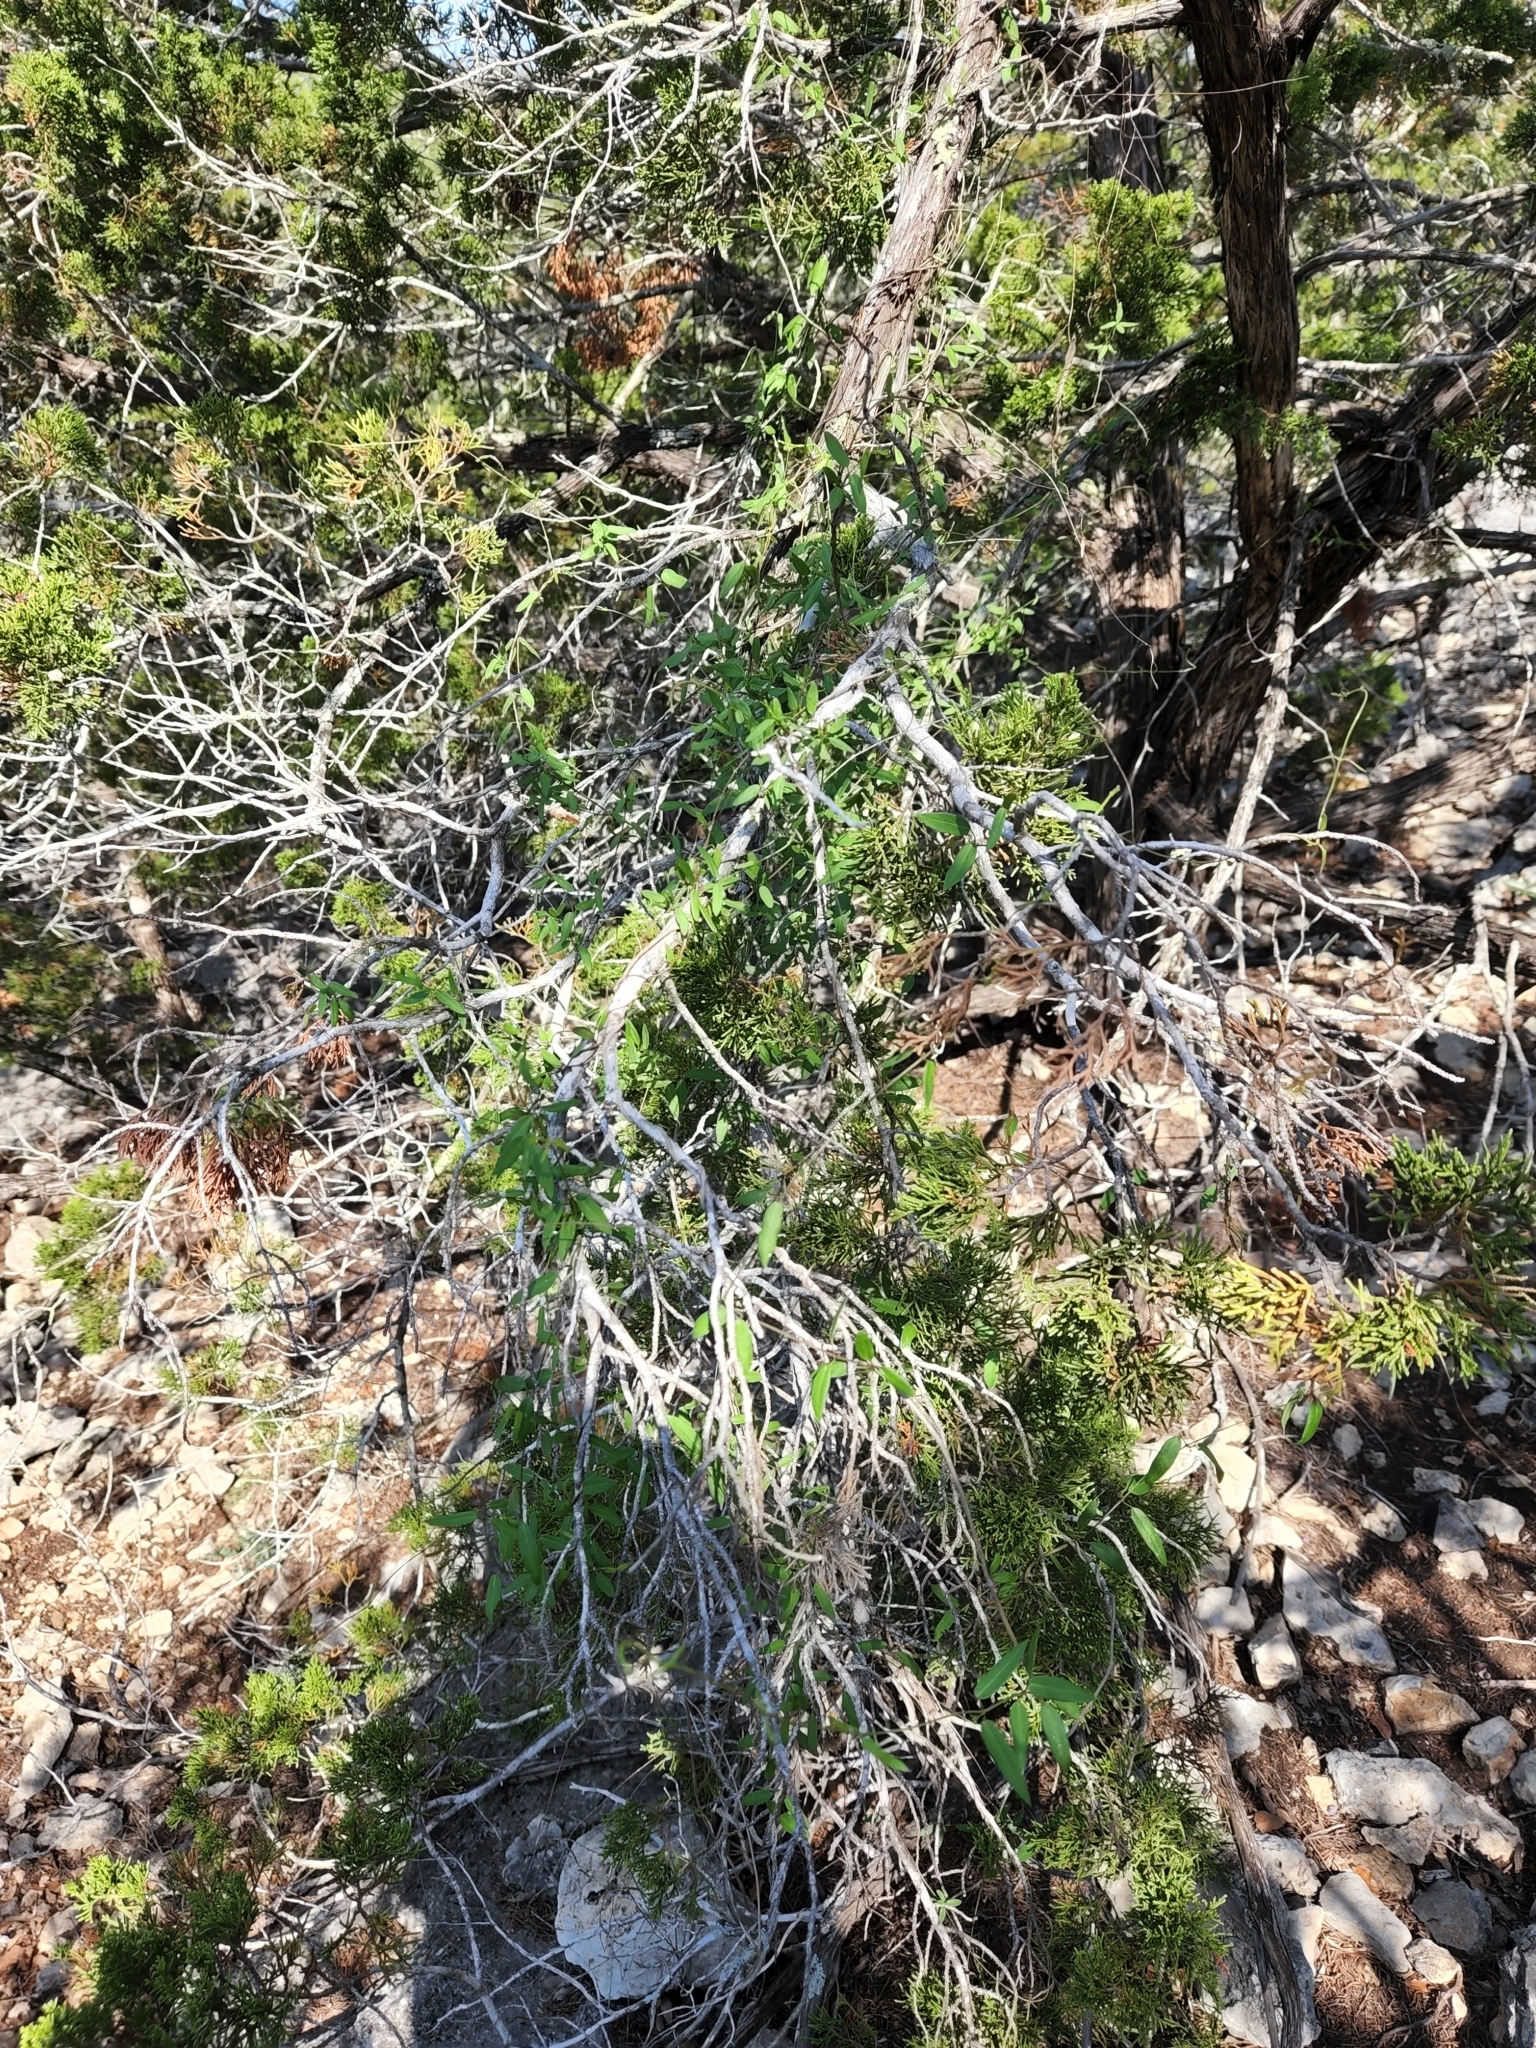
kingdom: Plantae
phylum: Tracheophyta
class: Magnoliopsida
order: Gentianales
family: Apocynaceae
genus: Metastelma
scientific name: Metastelma palmeri
